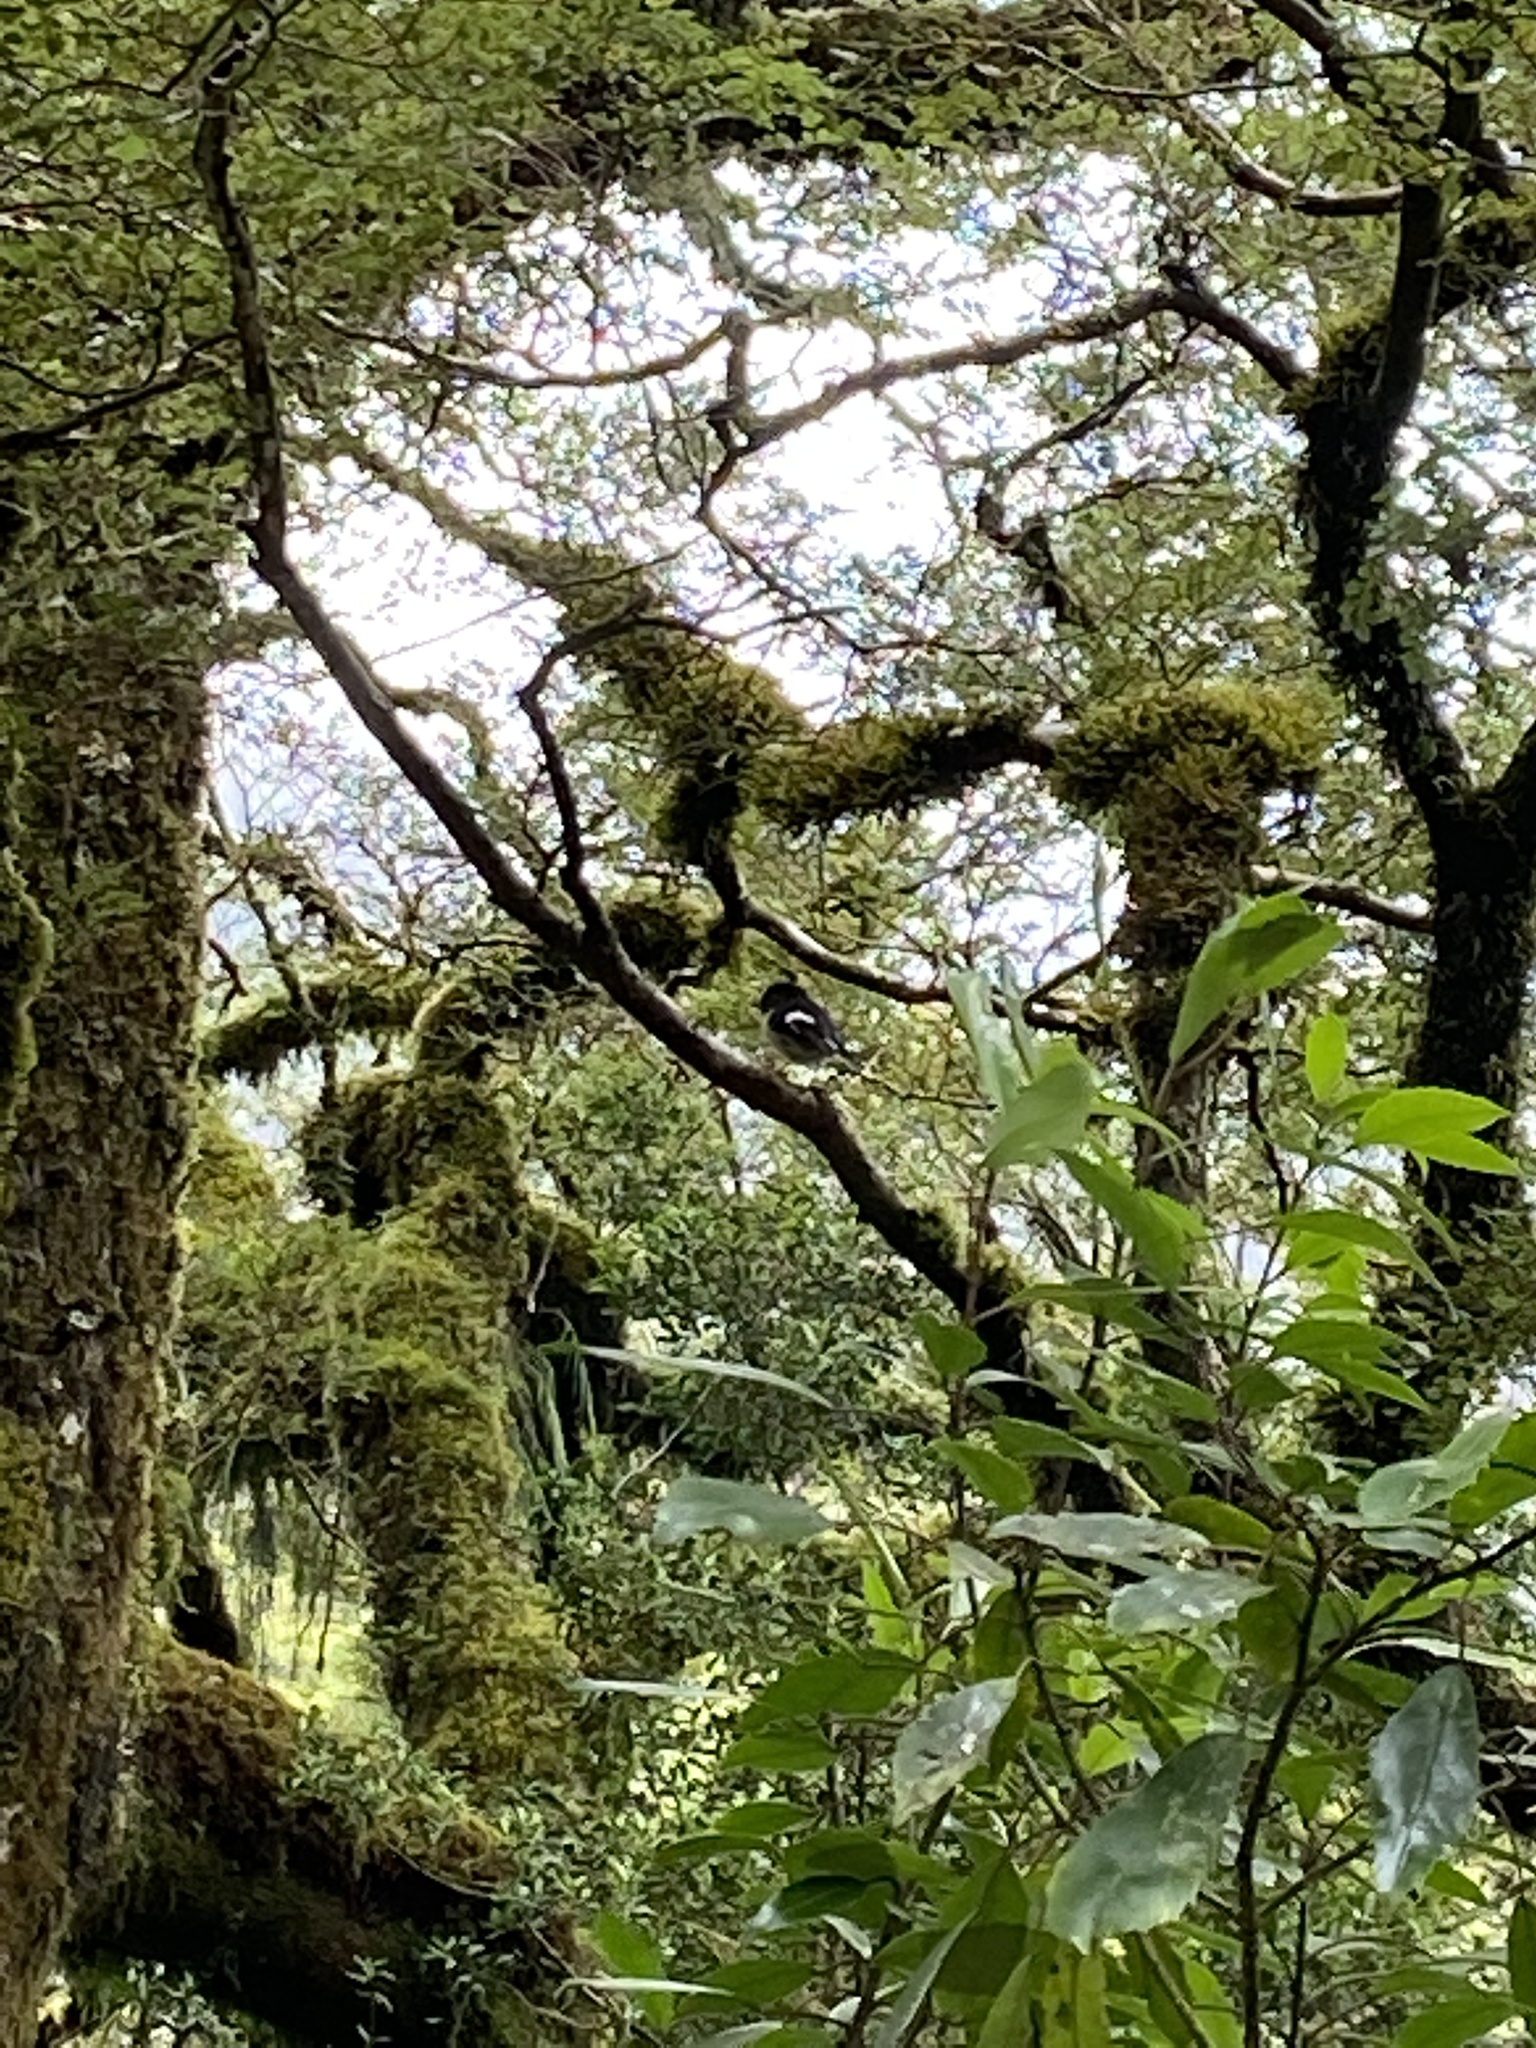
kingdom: Animalia
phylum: Chordata
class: Aves
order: Passeriformes
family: Petroicidae
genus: Petroica
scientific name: Petroica macrocephala
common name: Tomtit
